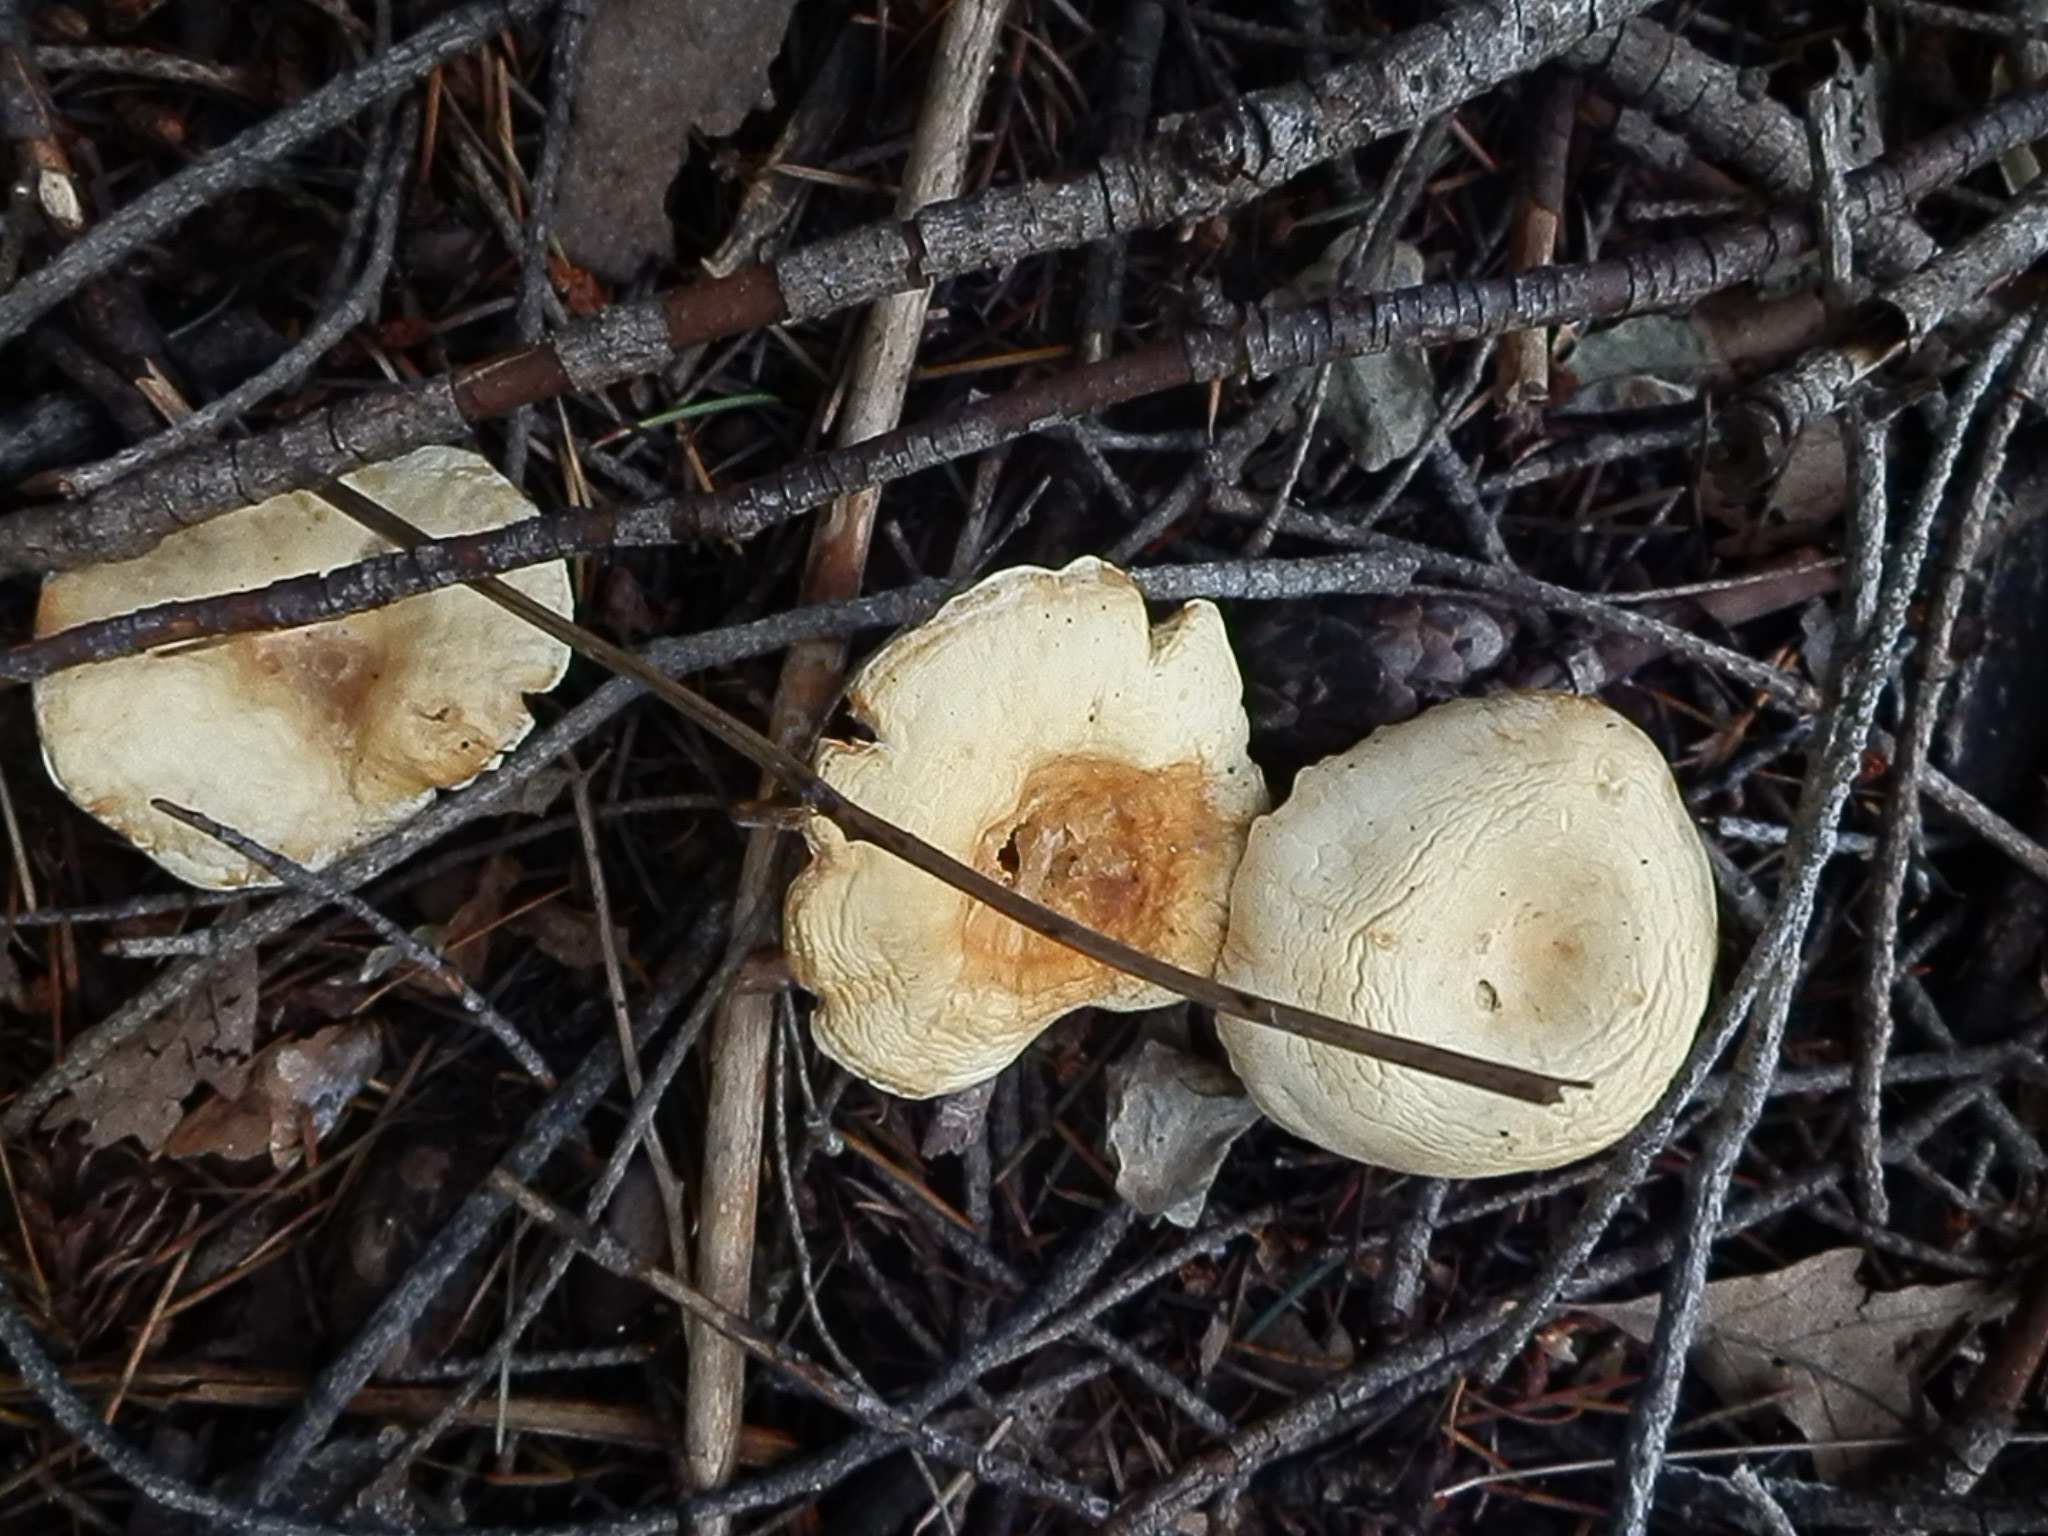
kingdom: Fungi
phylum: Basidiomycota
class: Agaricomycetes
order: Agaricales
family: Tricholomataceae
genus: Collybia
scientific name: Collybia phylladophila
